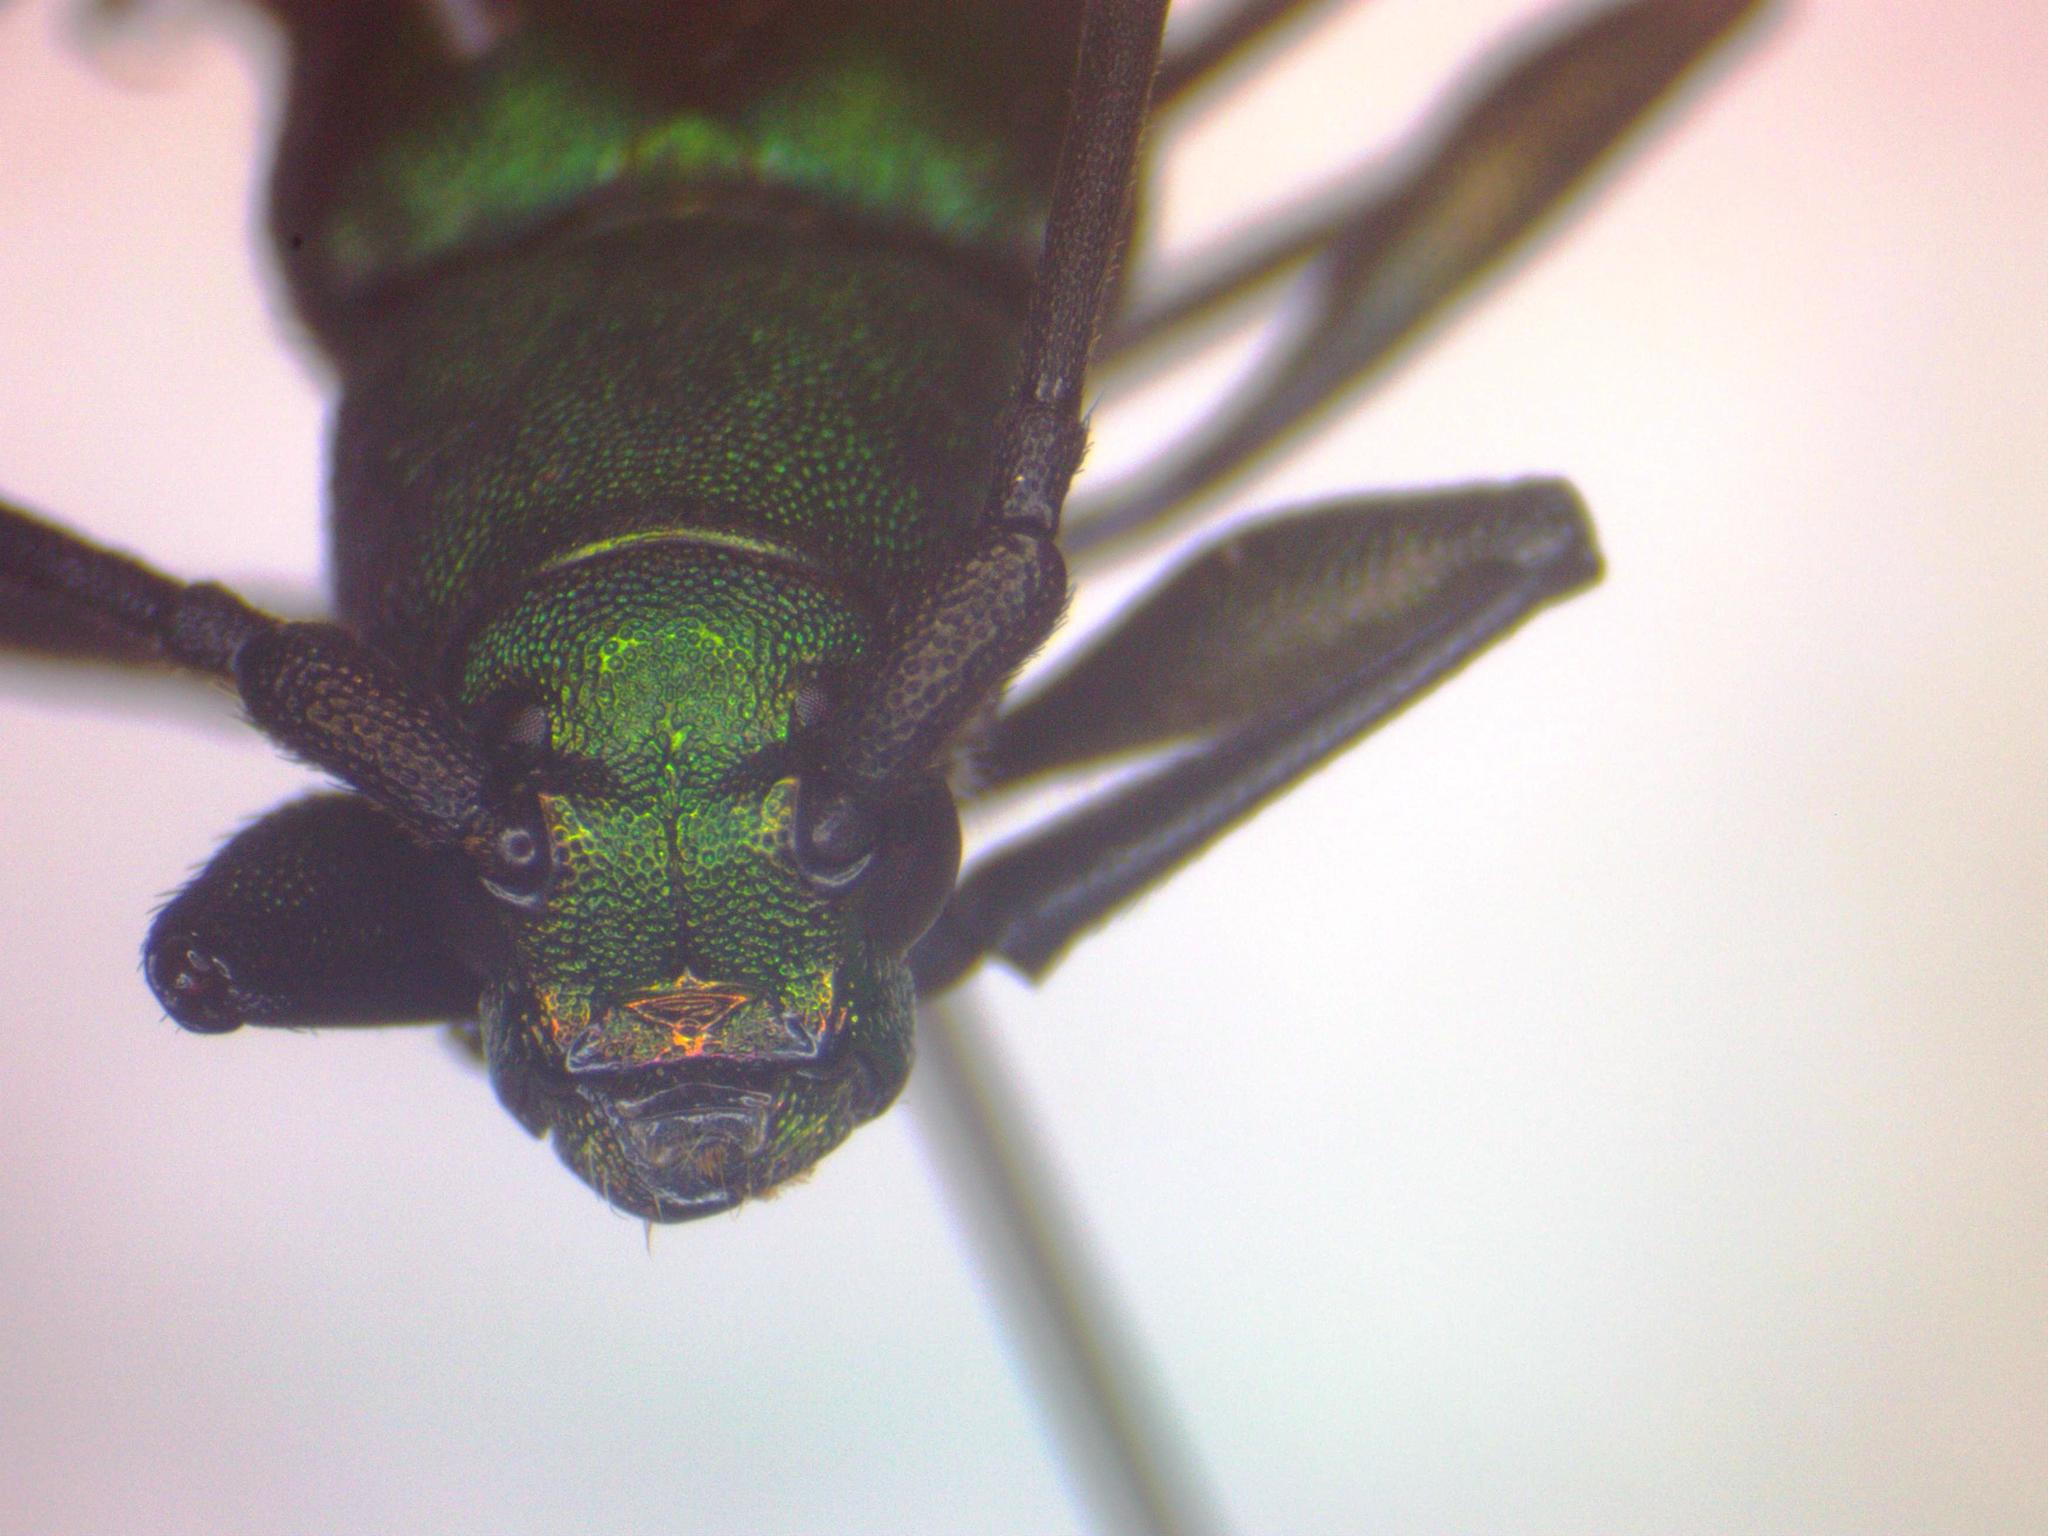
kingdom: Animalia
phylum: Arthropoda
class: Insecta
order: Coleoptera
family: Cerambycidae
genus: Chrysoprasis
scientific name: Chrysoprasis hirtula
